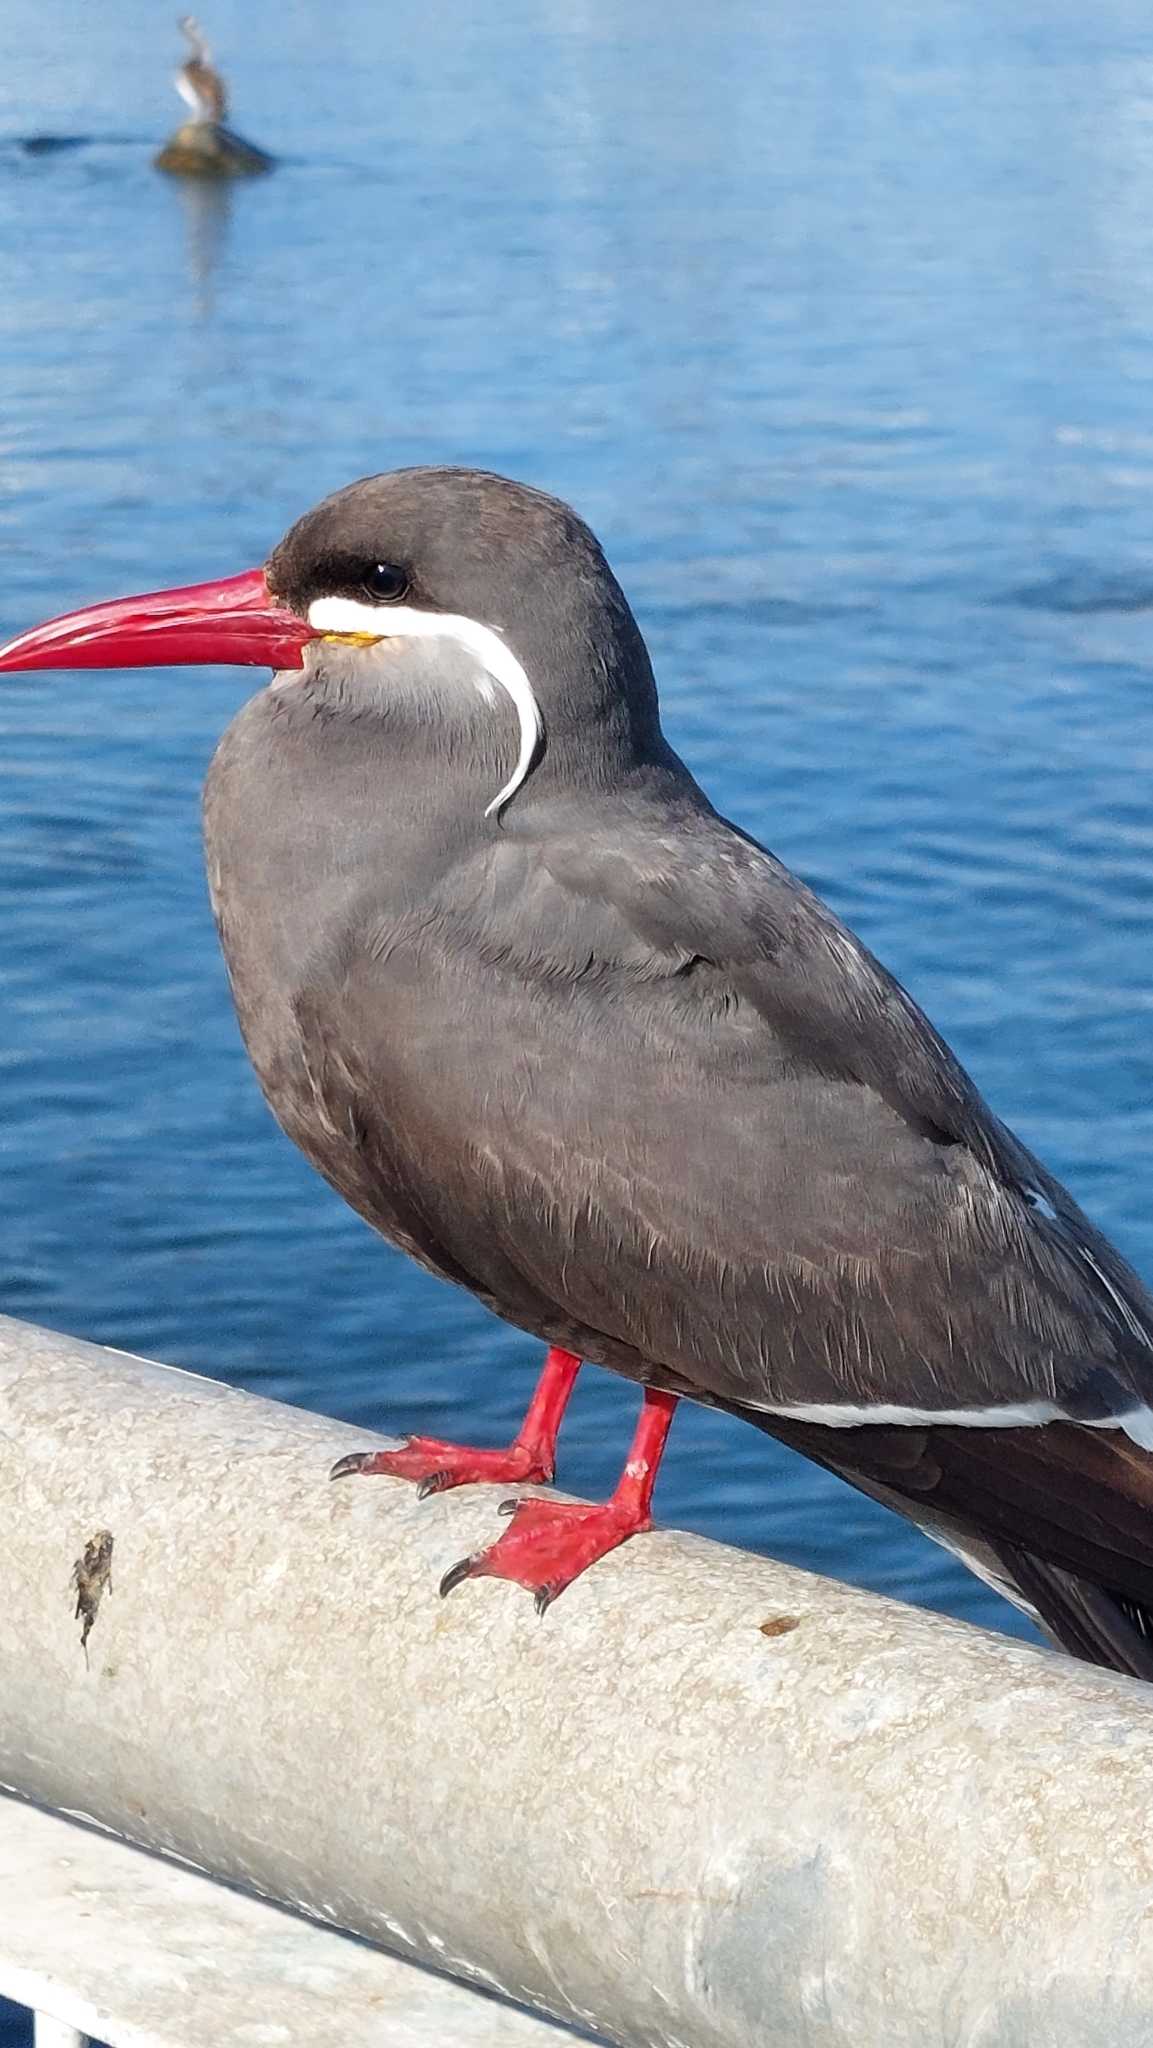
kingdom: Animalia
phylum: Chordata
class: Aves
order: Charadriiformes
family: Laridae
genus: Larosterna
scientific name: Larosterna inca
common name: Inca tern
